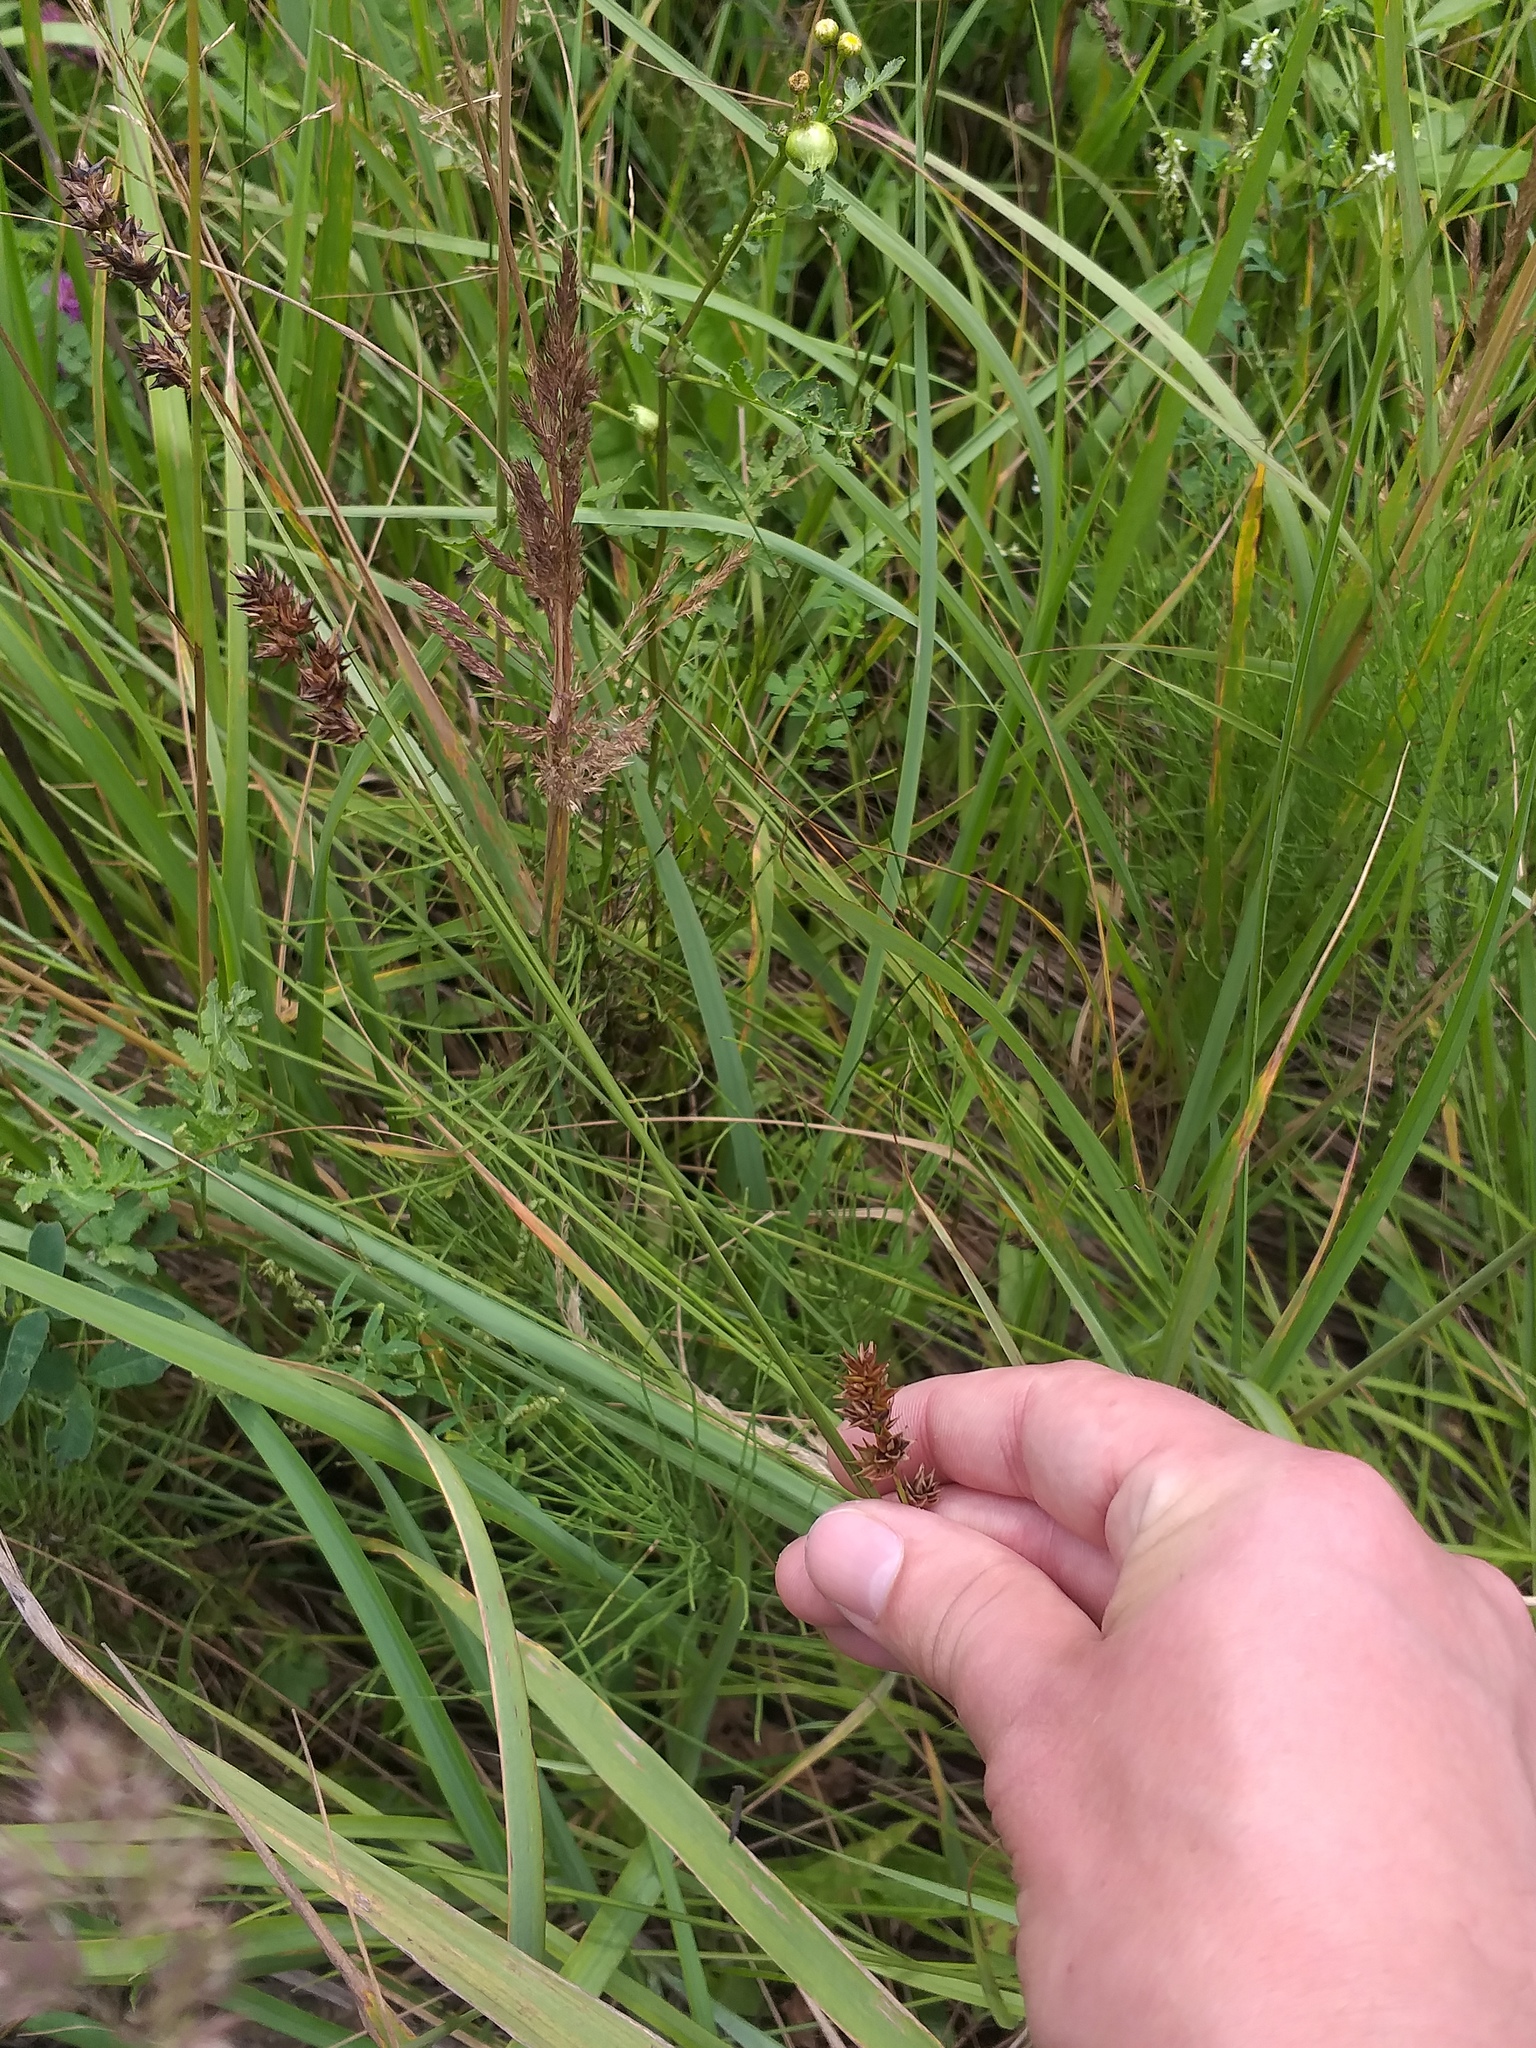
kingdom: Plantae
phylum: Tracheophyta
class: Liliopsida
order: Poales
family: Cyperaceae
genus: Carex
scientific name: Carex spicata
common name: Spiked sedge
